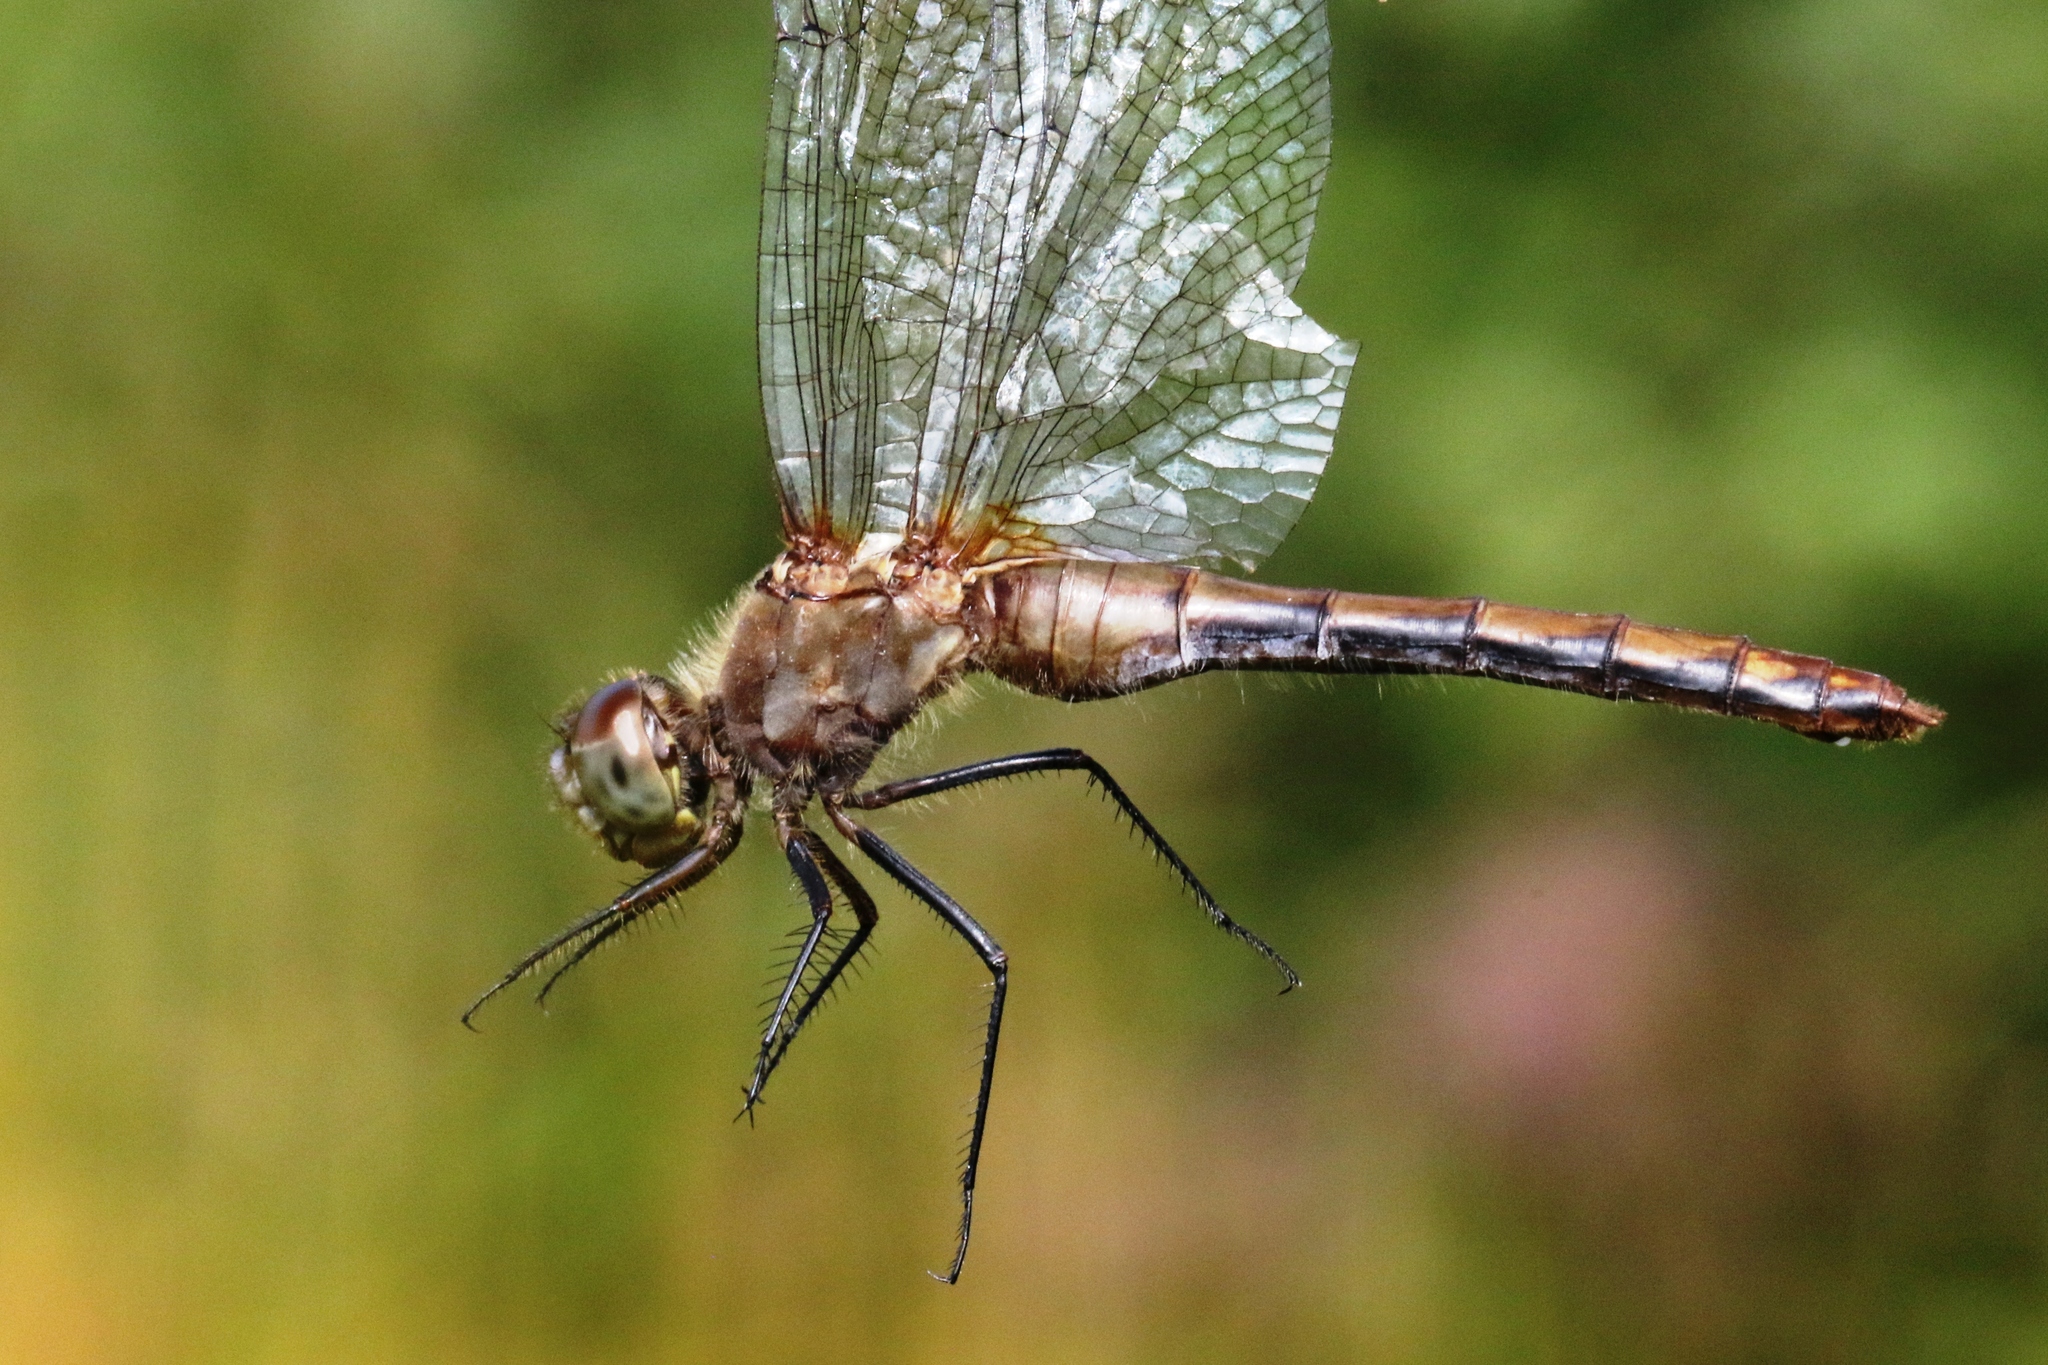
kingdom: Animalia
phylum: Arthropoda
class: Insecta
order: Odonata
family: Libellulidae
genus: Sympetrum
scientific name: Sympetrum obtrusum
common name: White-faced meadowhawk
